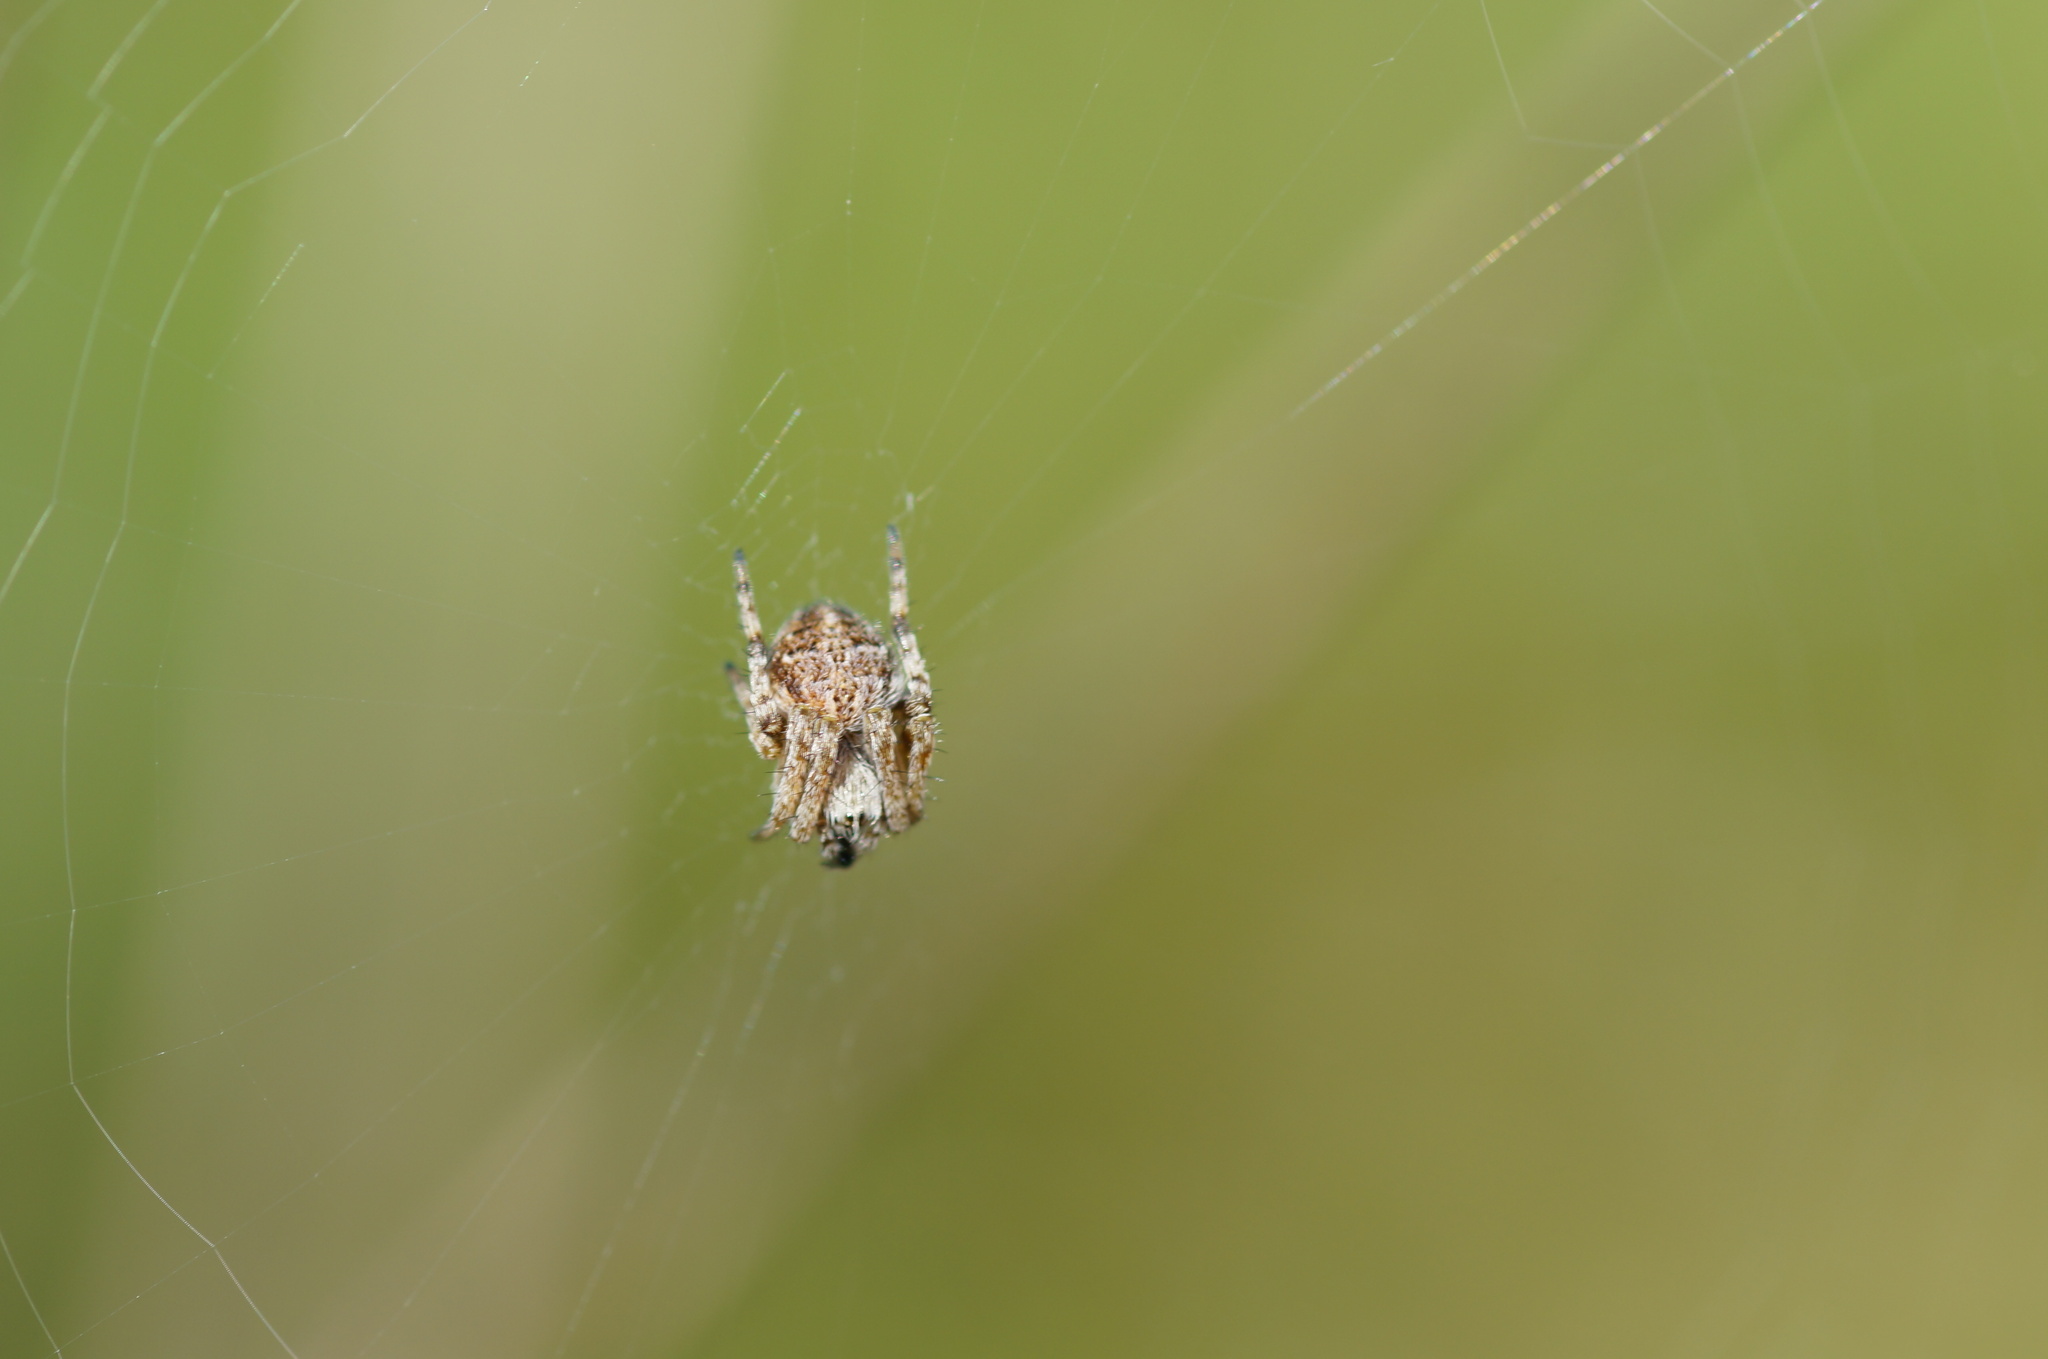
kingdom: Animalia
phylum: Arthropoda
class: Arachnida
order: Araneae
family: Araneidae
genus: Agalenatea
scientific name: Agalenatea redii
